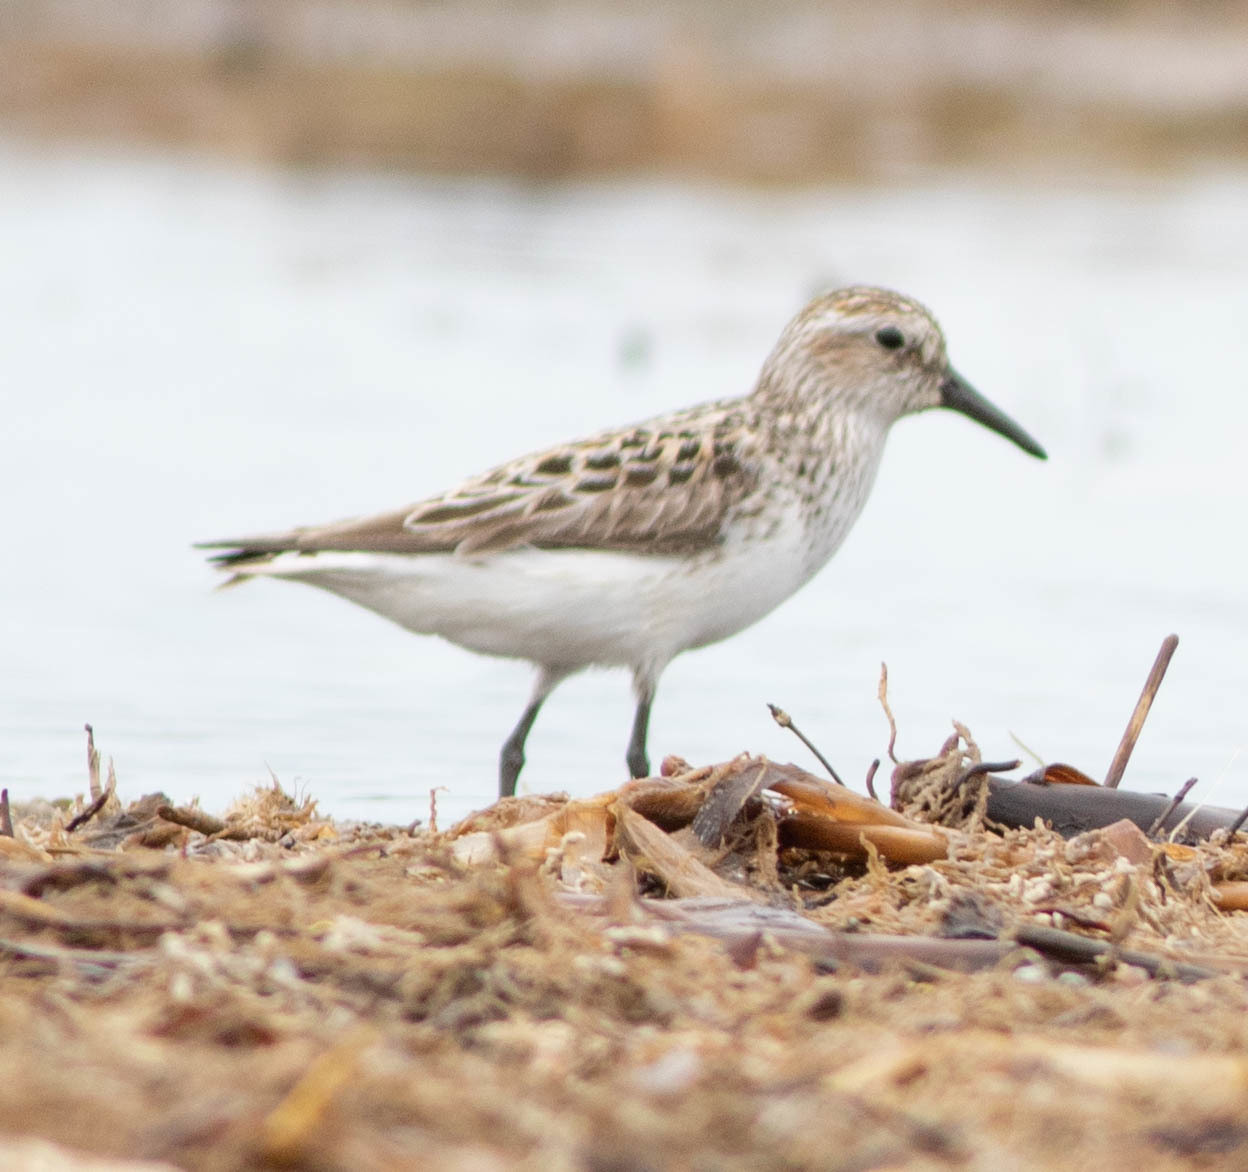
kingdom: Animalia
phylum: Chordata
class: Aves
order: Charadriiformes
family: Scolopacidae
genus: Calidris
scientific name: Calidris mauri
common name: Western sandpiper
